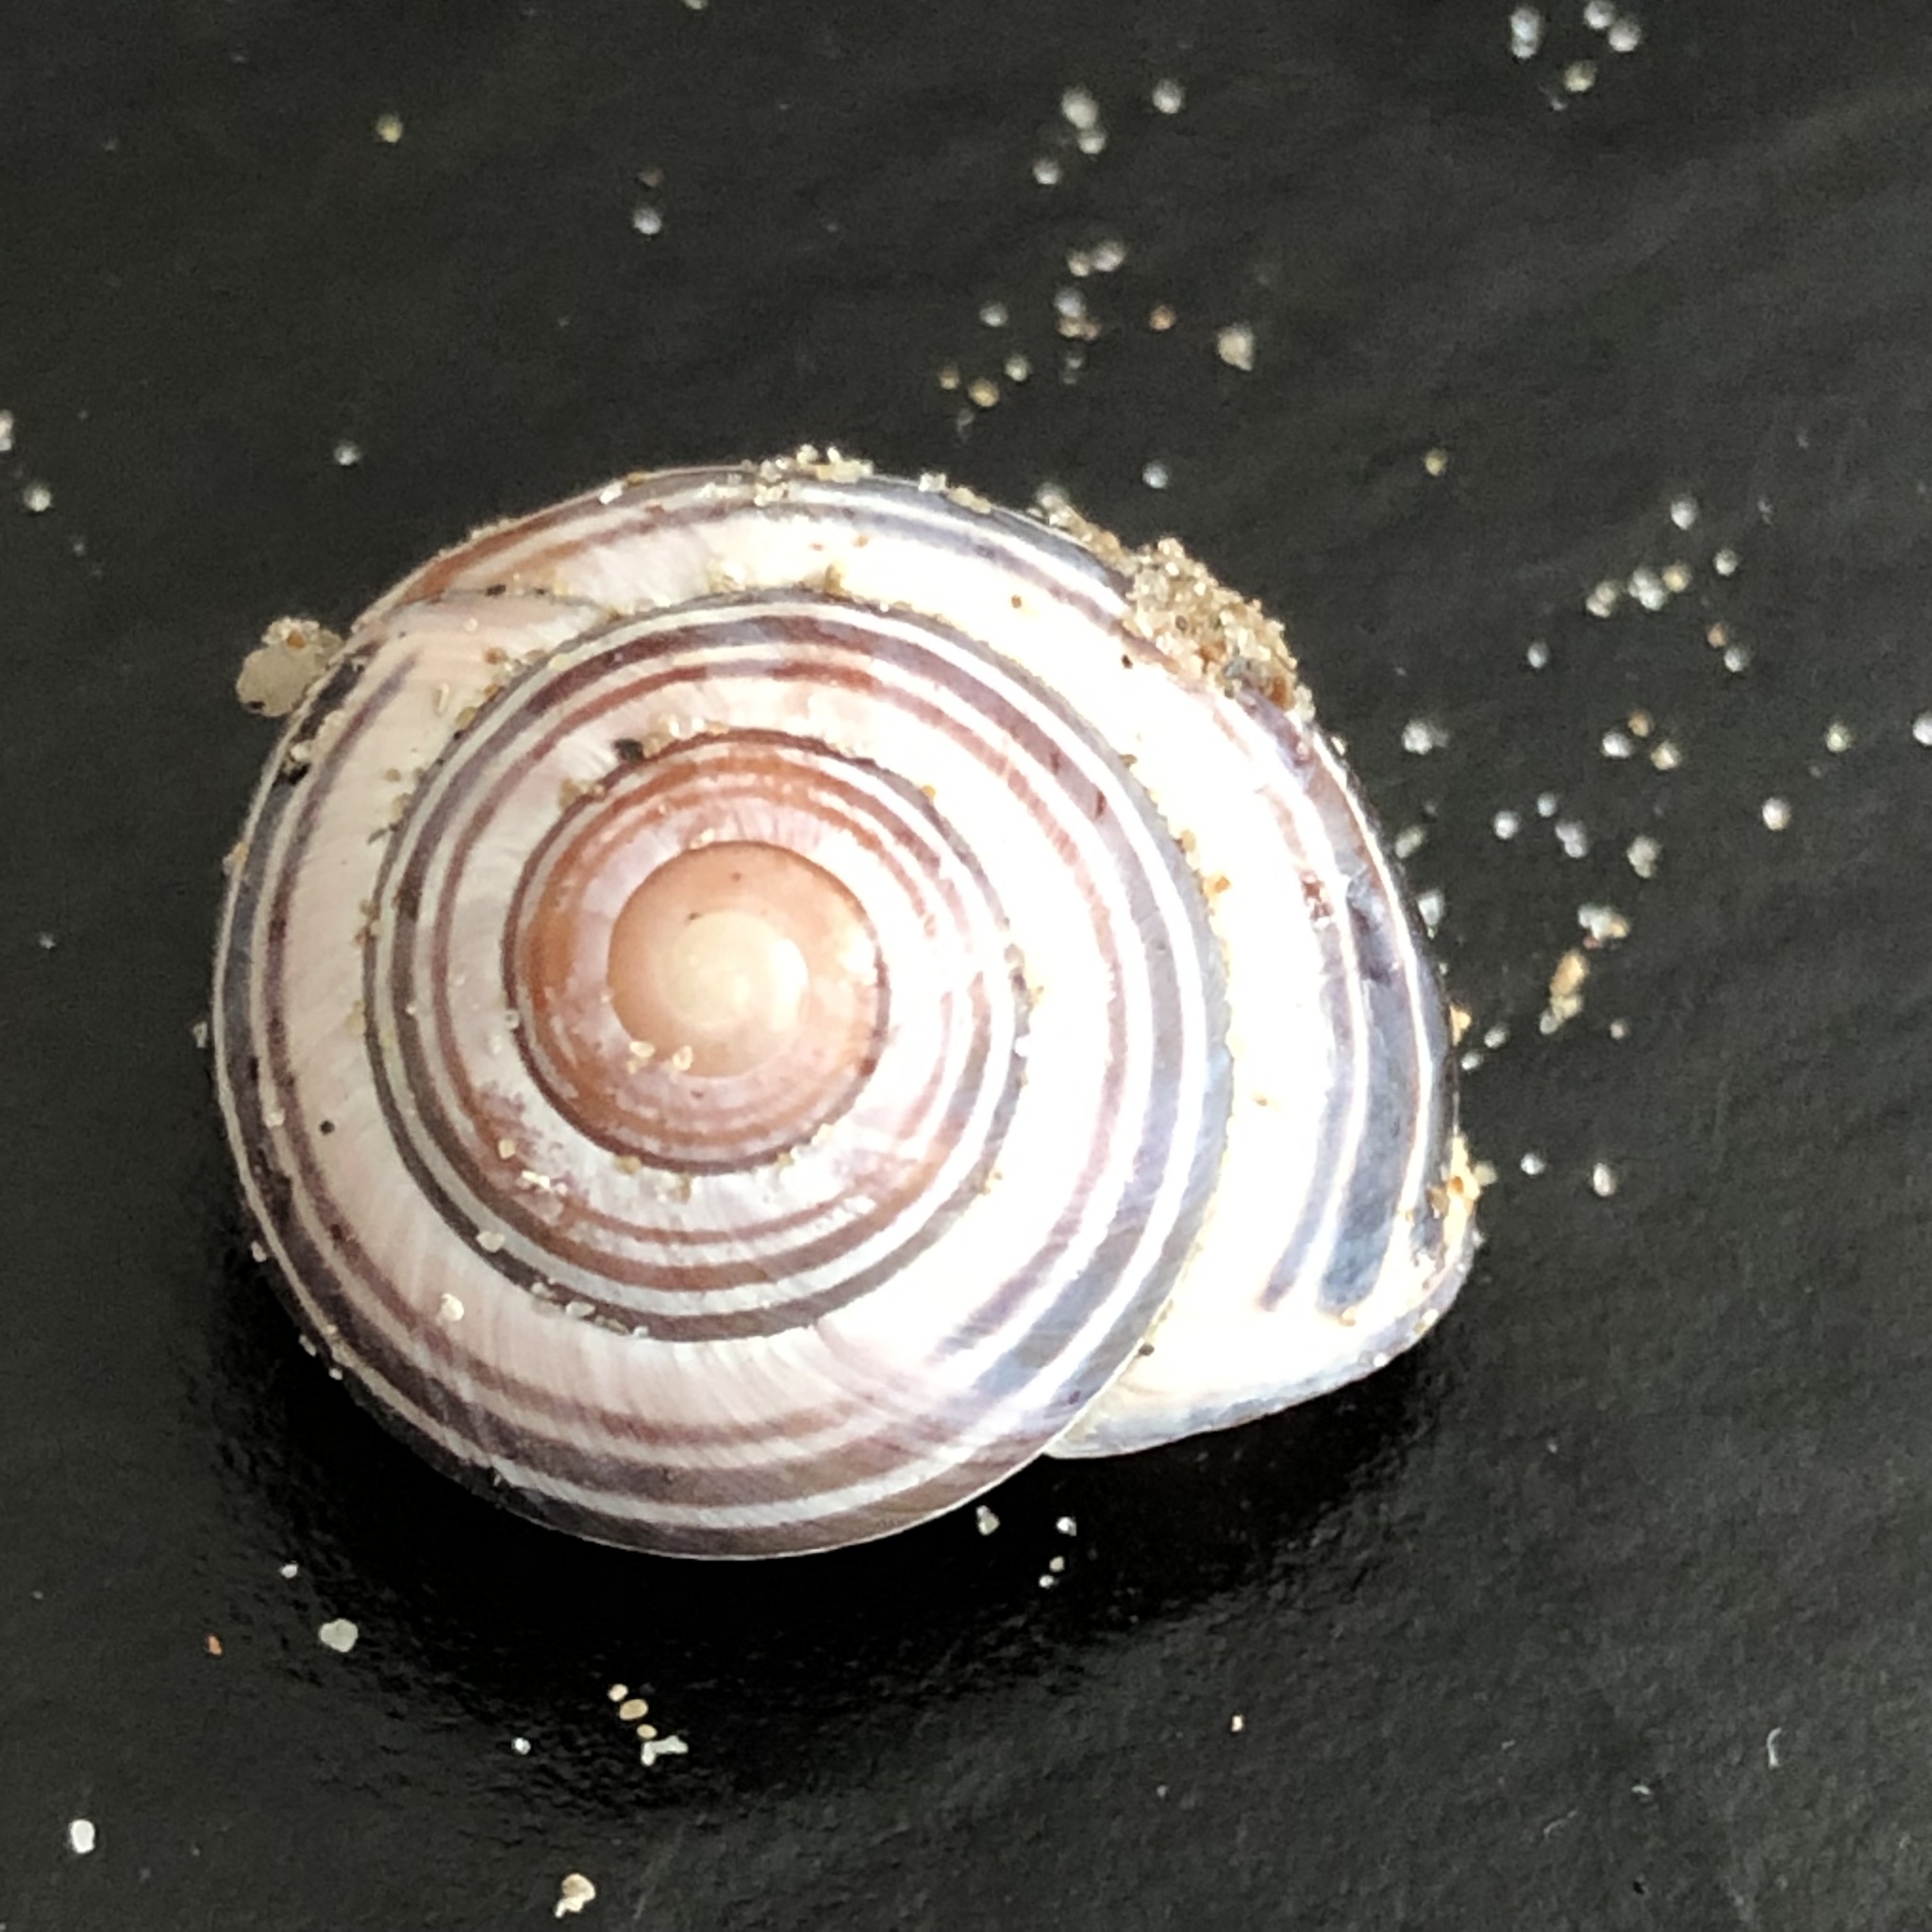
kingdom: Animalia
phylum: Mollusca
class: Gastropoda
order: Stylommatophora
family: Helicidae
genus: Cepaea
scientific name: Cepaea nemoralis
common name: Grovesnail
